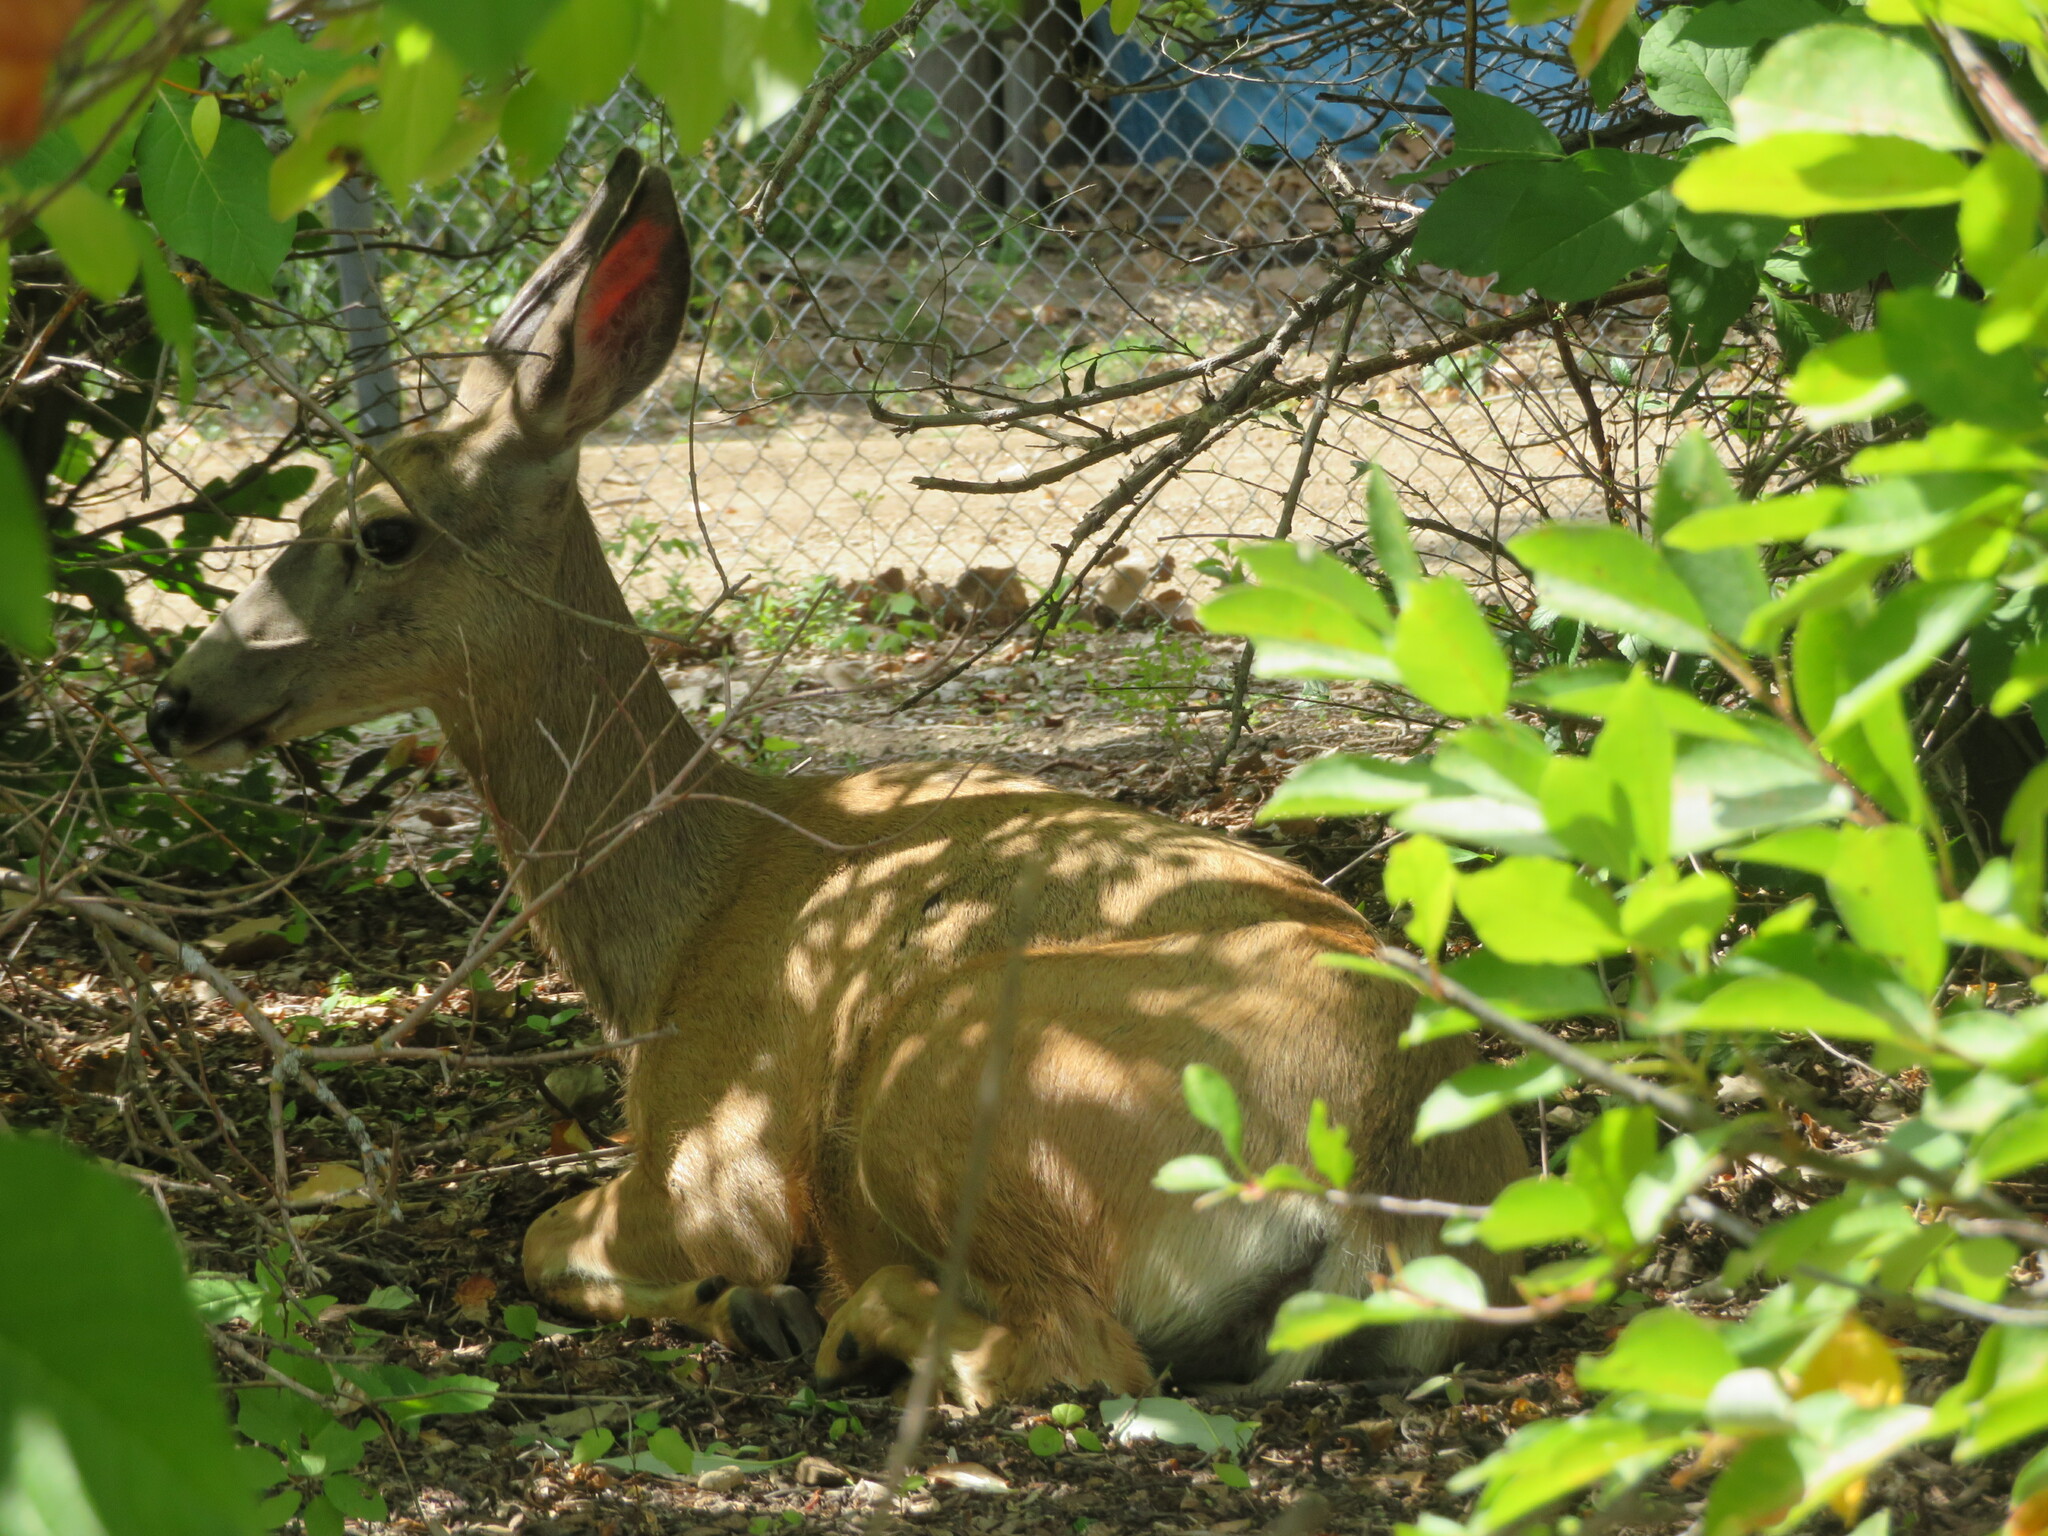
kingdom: Animalia
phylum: Chordata
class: Mammalia
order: Artiodactyla
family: Cervidae
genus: Odocoileus
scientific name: Odocoileus hemionus
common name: Mule deer
